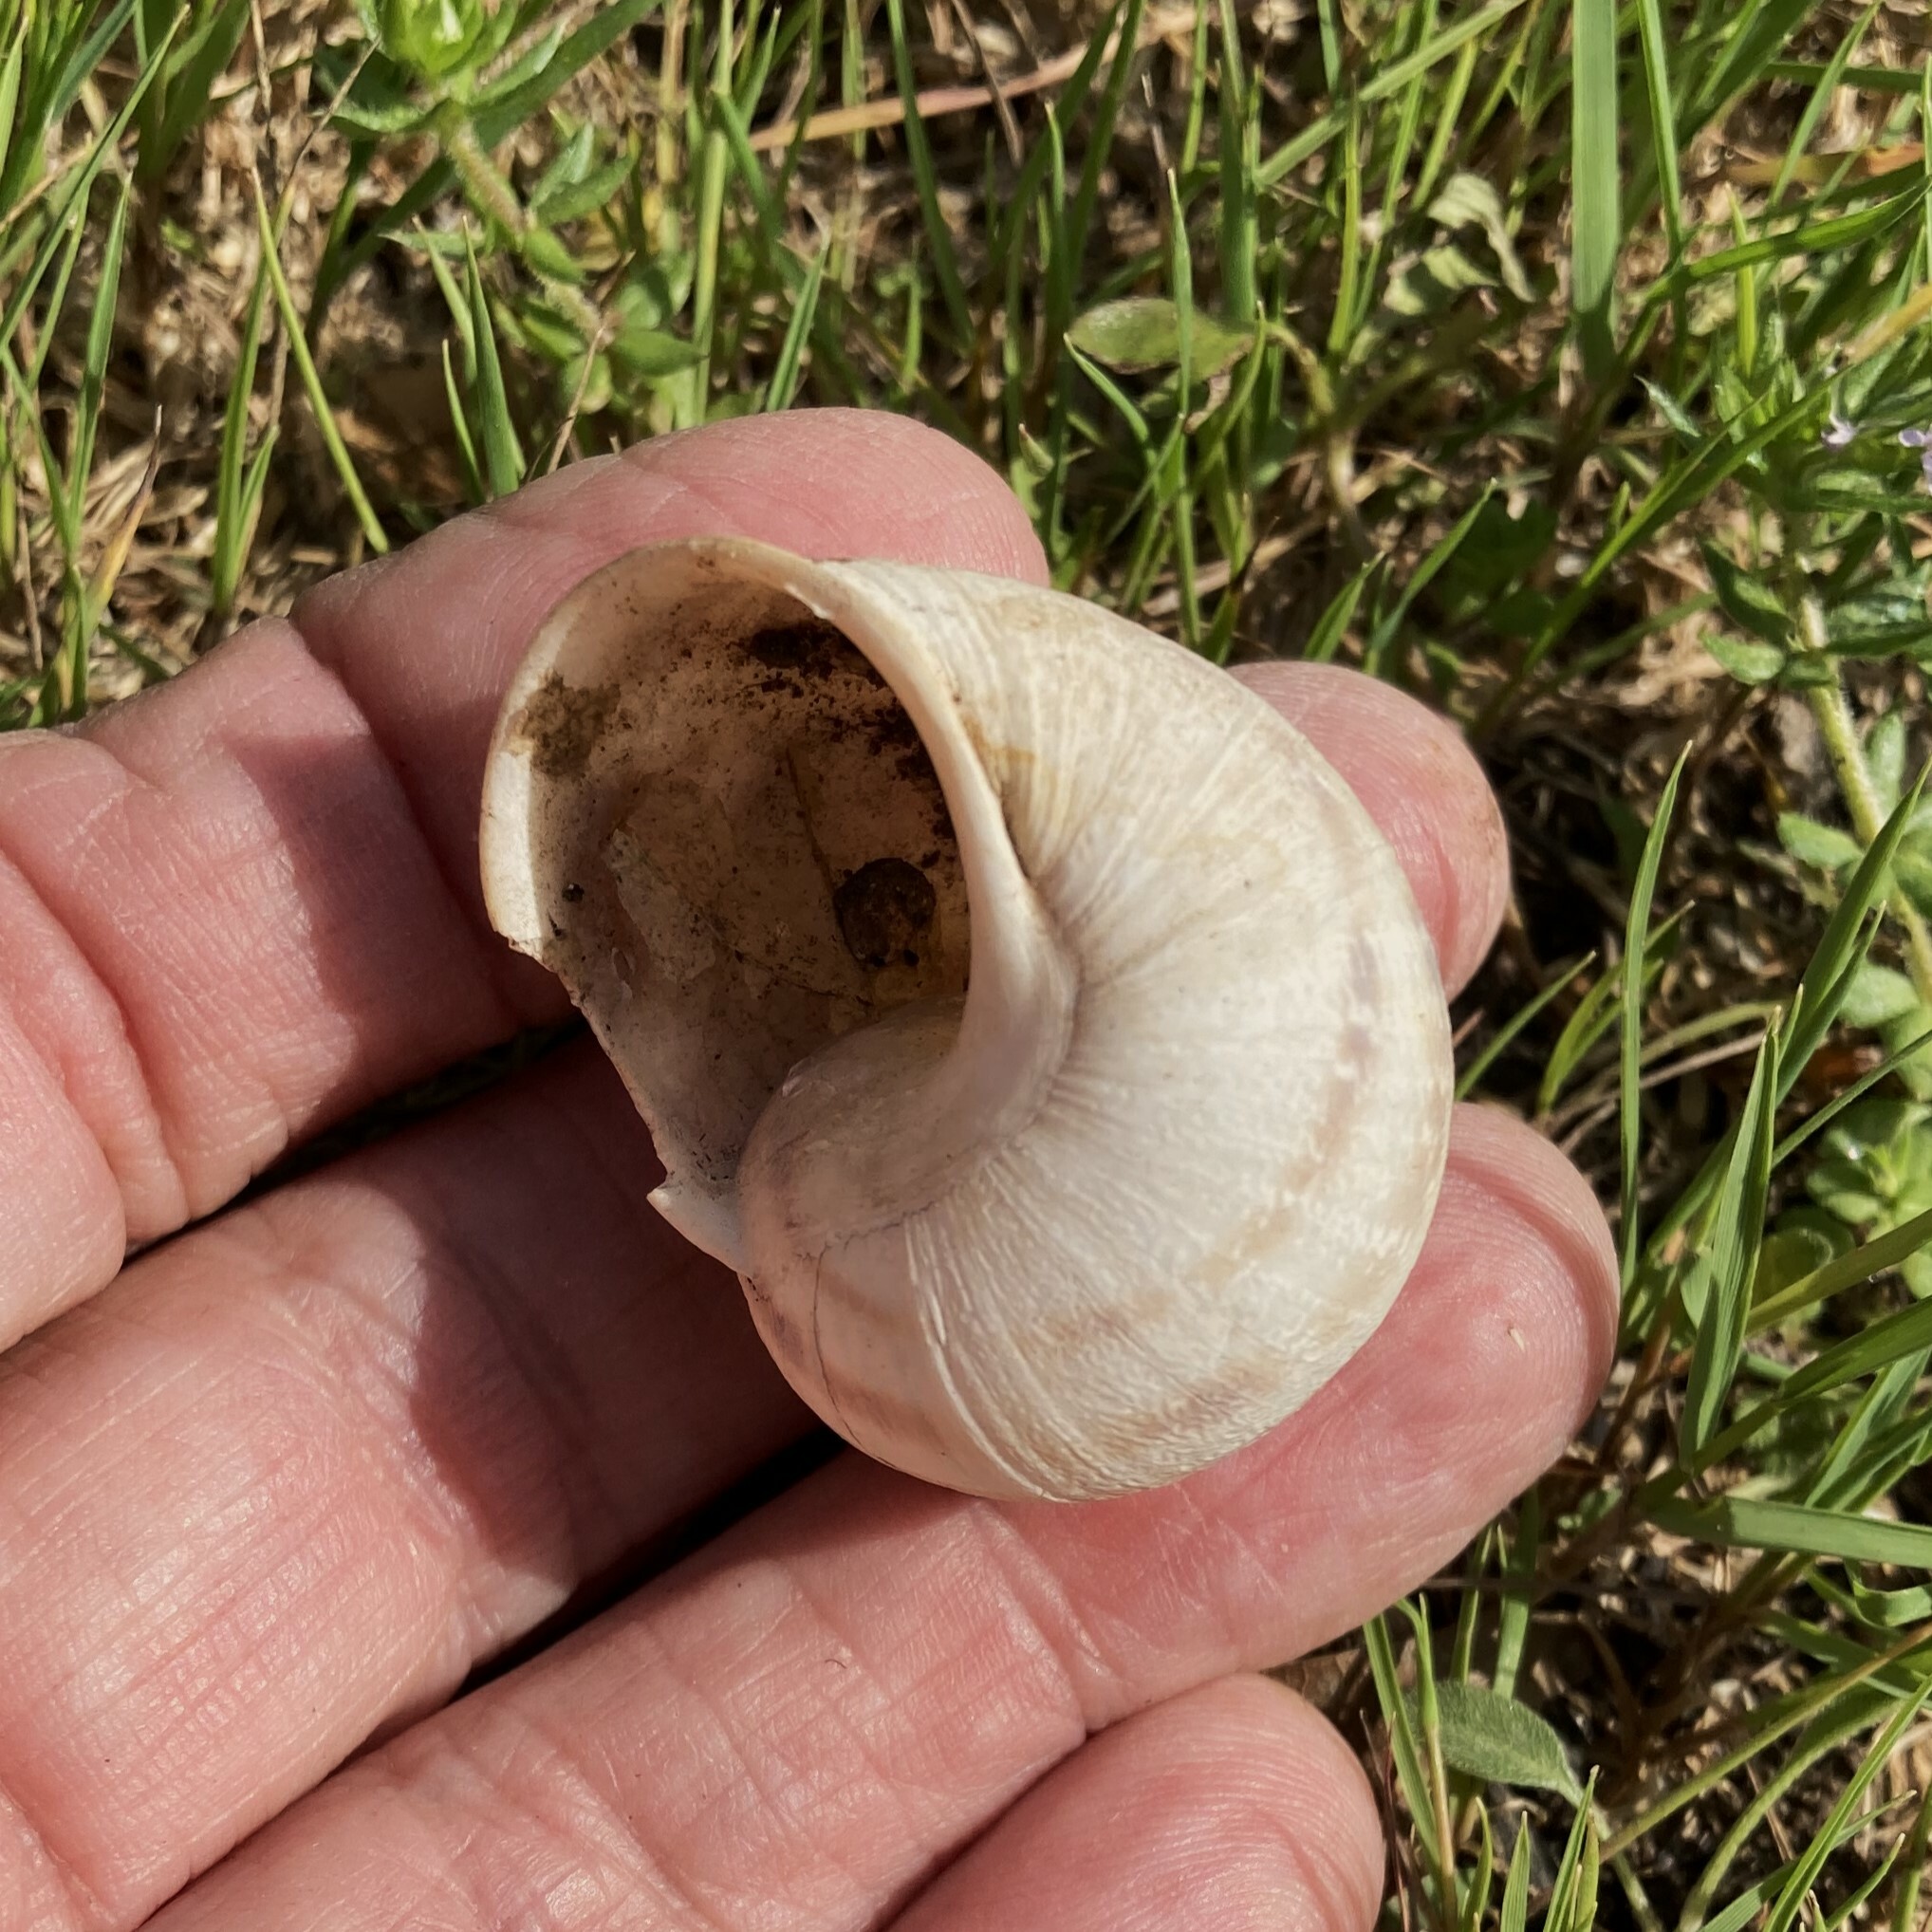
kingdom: Animalia
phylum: Mollusca
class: Gastropoda
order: Stylommatophora
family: Helicidae
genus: Cornu
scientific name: Cornu aspersum
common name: Brown garden snail
